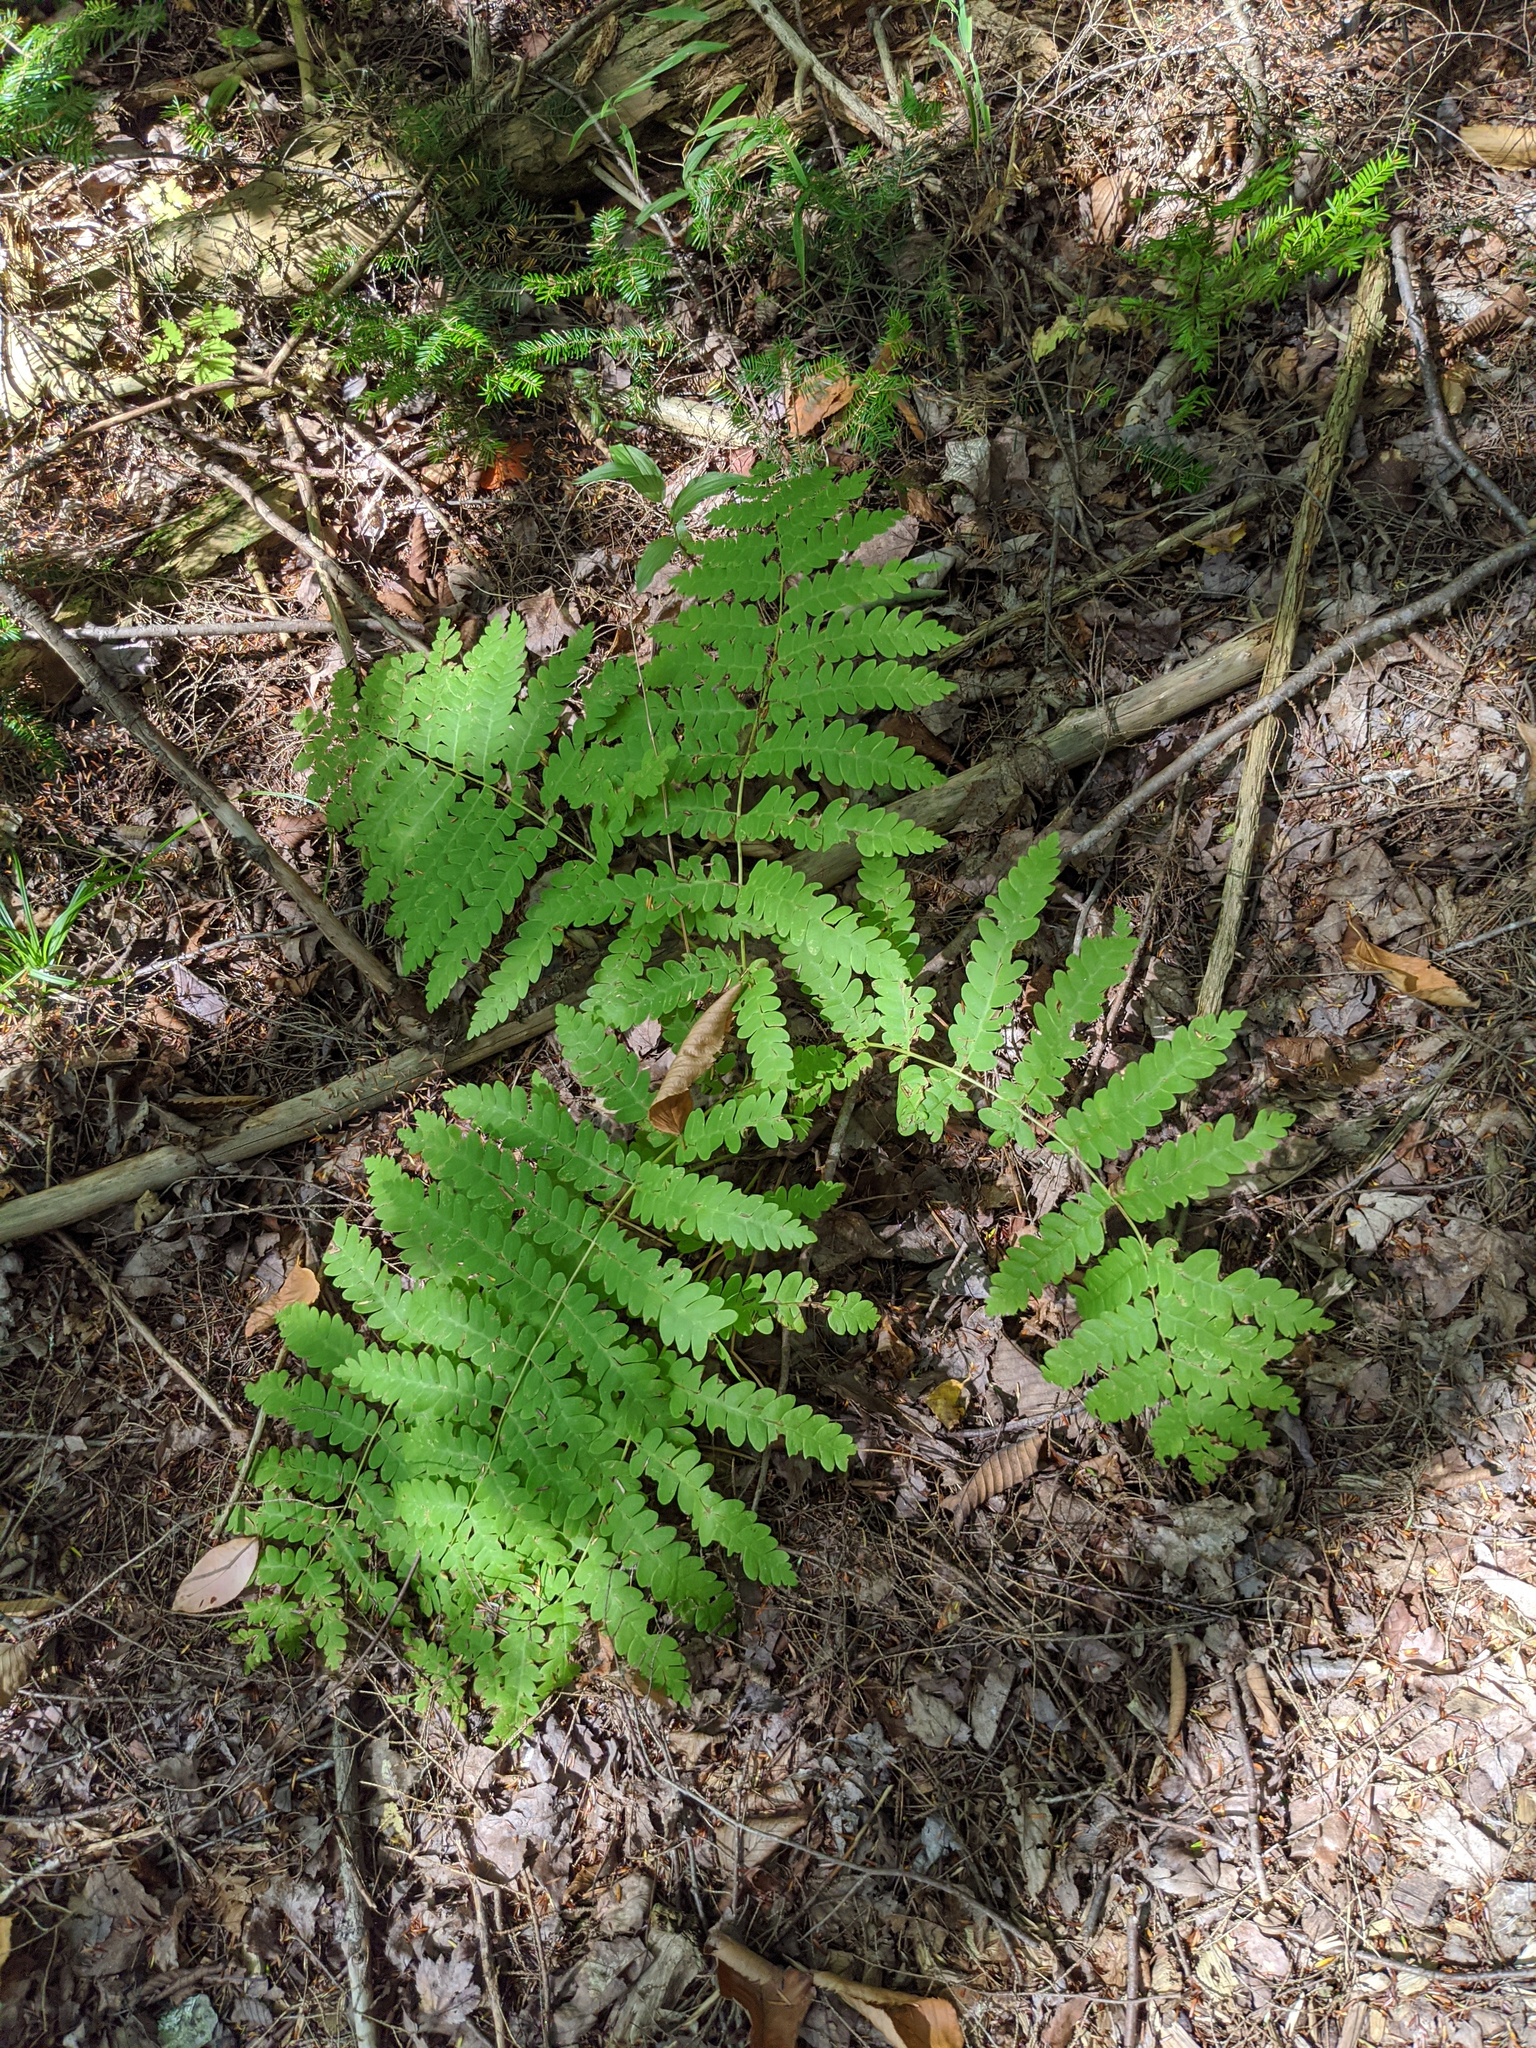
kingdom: Plantae
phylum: Tracheophyta
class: Polypodiopsida
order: Osmundales
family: Osmundaceae
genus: Claytosmunda
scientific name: Claytosmunda claytoniana
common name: Clayton's fern
